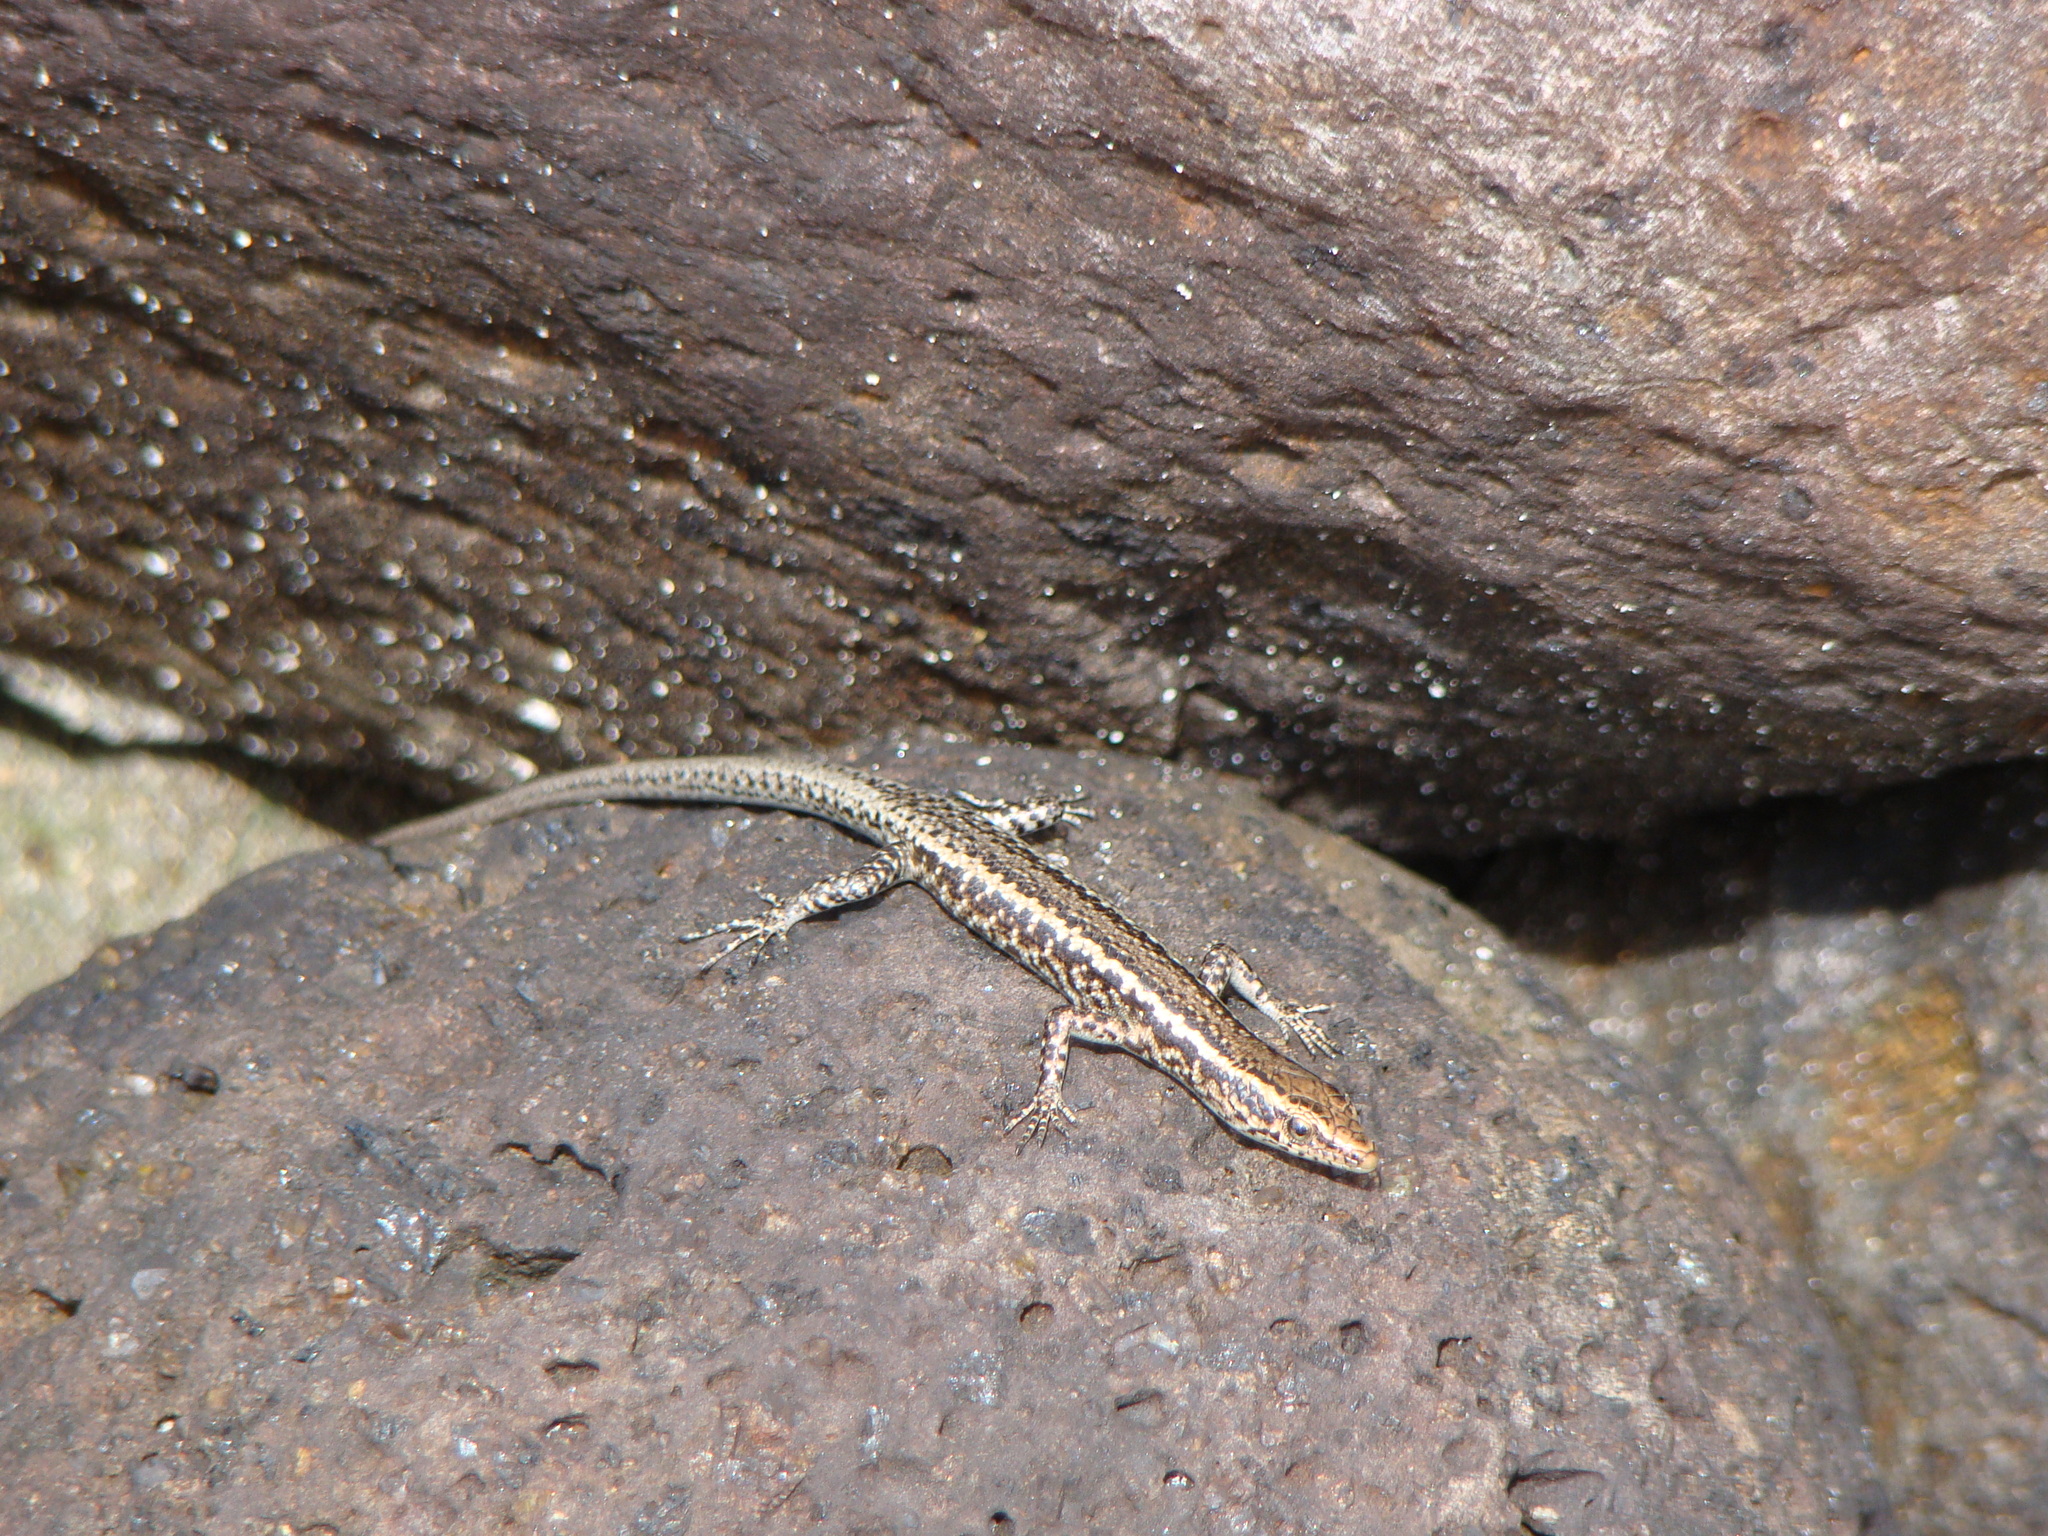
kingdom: Animalia
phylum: Chordata
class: Squamata
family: Scincidae
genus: Cryptoblepharus
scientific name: Cryptoblepharus poecilopleurus
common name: Mottled snake-eyed skink
